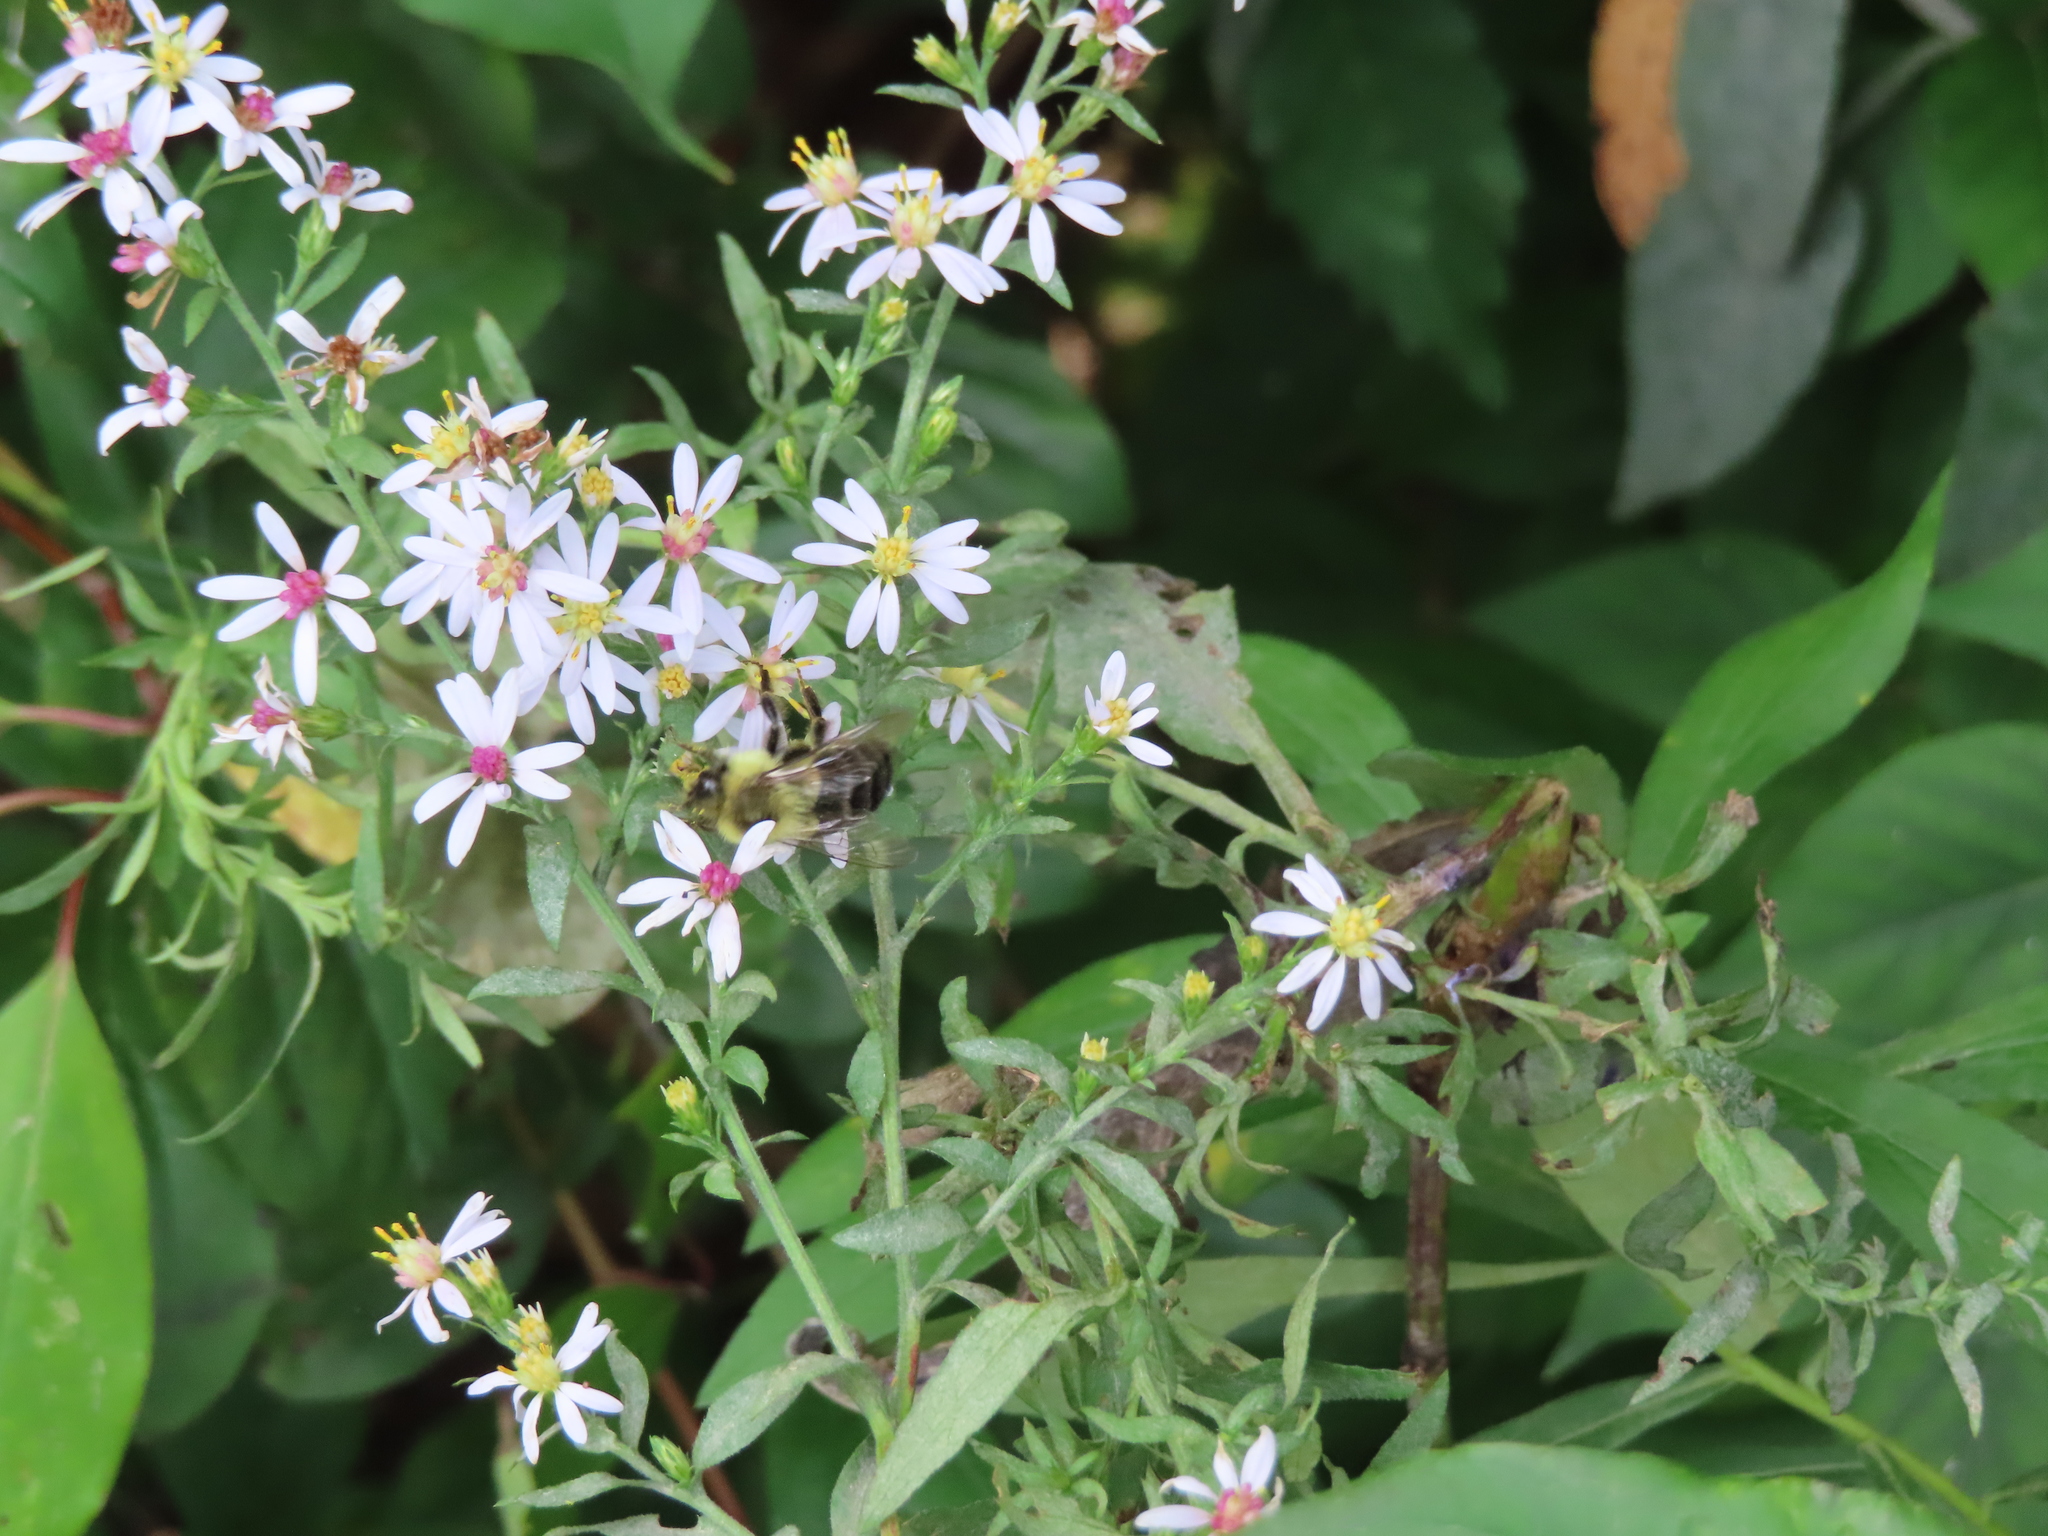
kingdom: Animalia
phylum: Arthropoda
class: Insecta
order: Hymenoptera
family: Apidae
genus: Bombus
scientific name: Bombus impatiens
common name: Common eastern bumble bee
